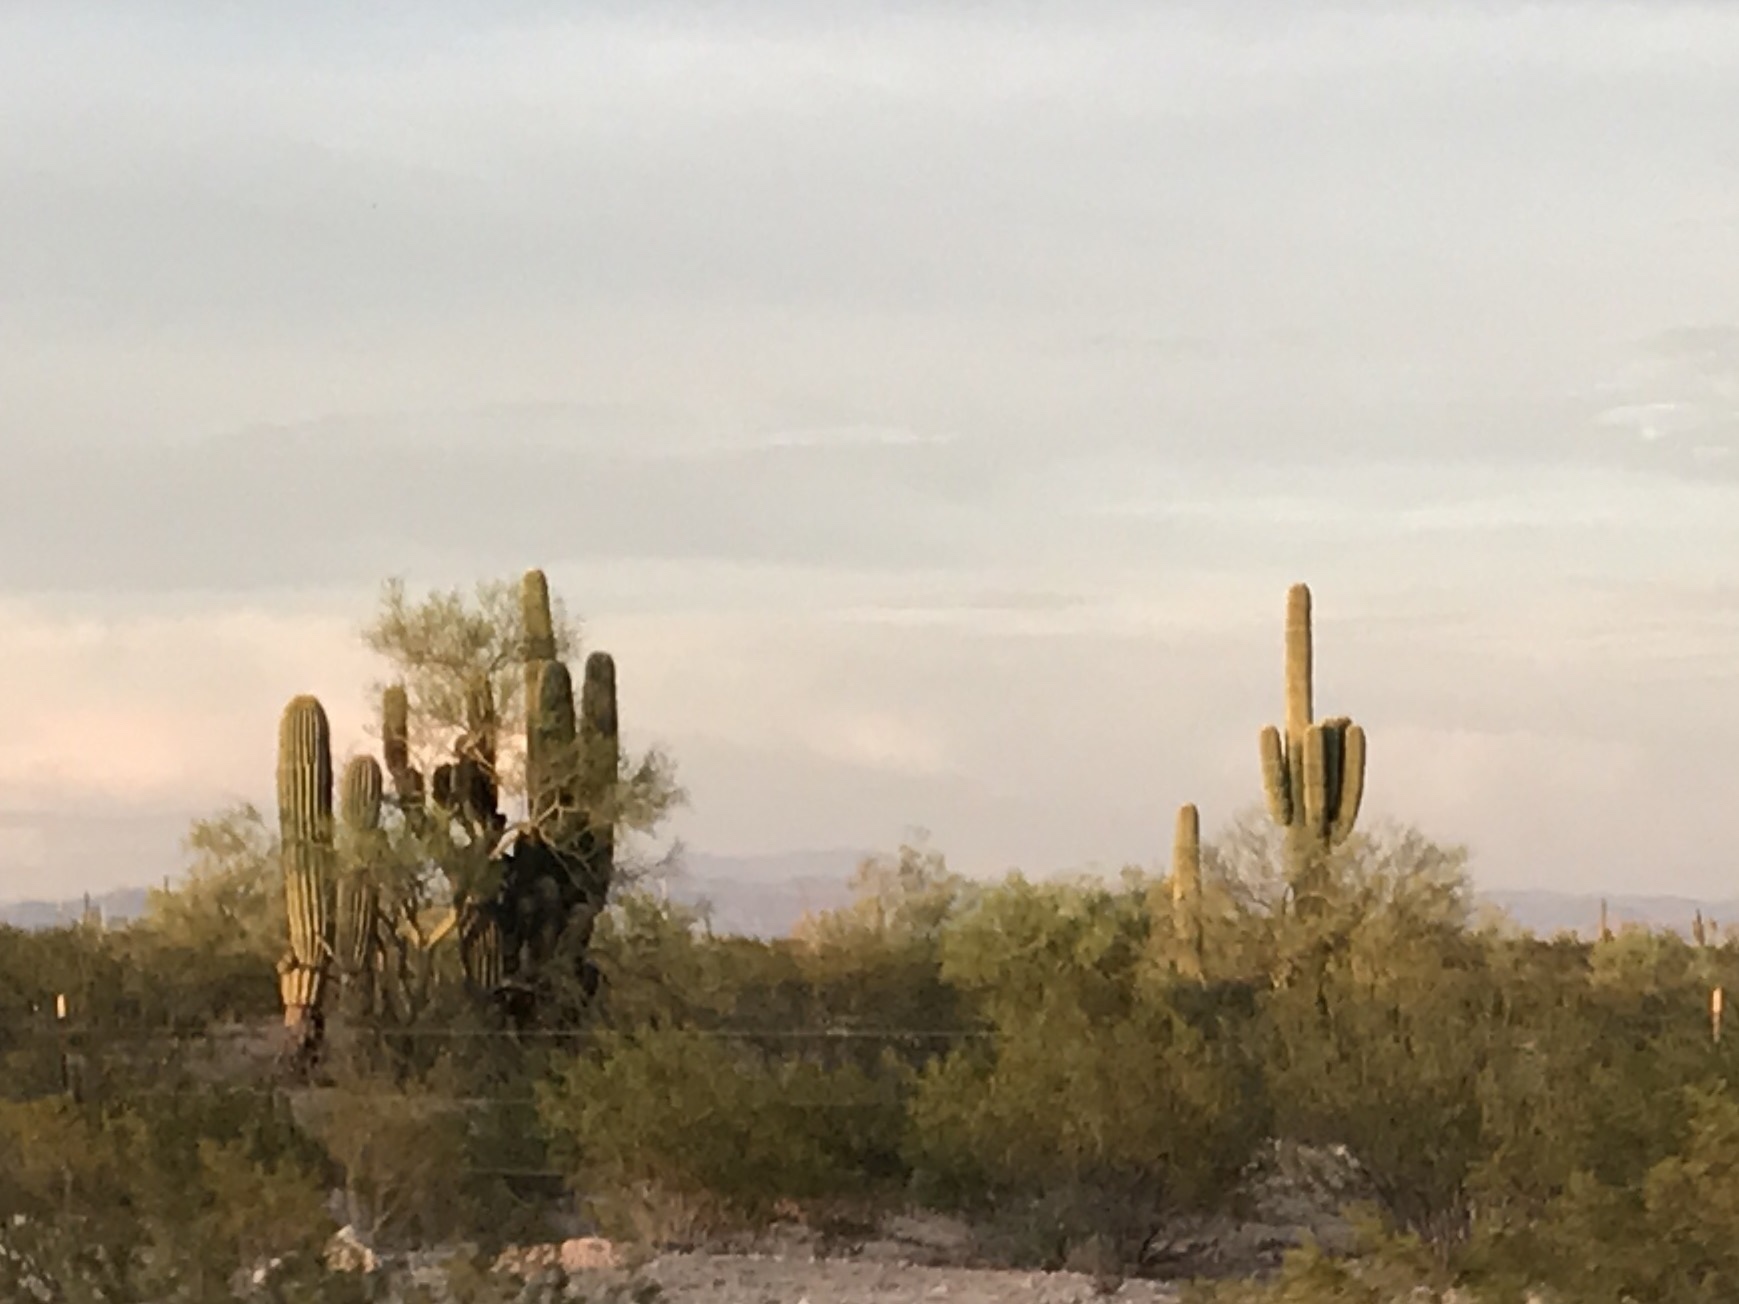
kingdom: Plantae
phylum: Tracheophyta
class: Magnoliopsida
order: Caryophyllales
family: Cactaceae
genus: Carnegiea
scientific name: Carnegiea gigantea
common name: Saguaro
